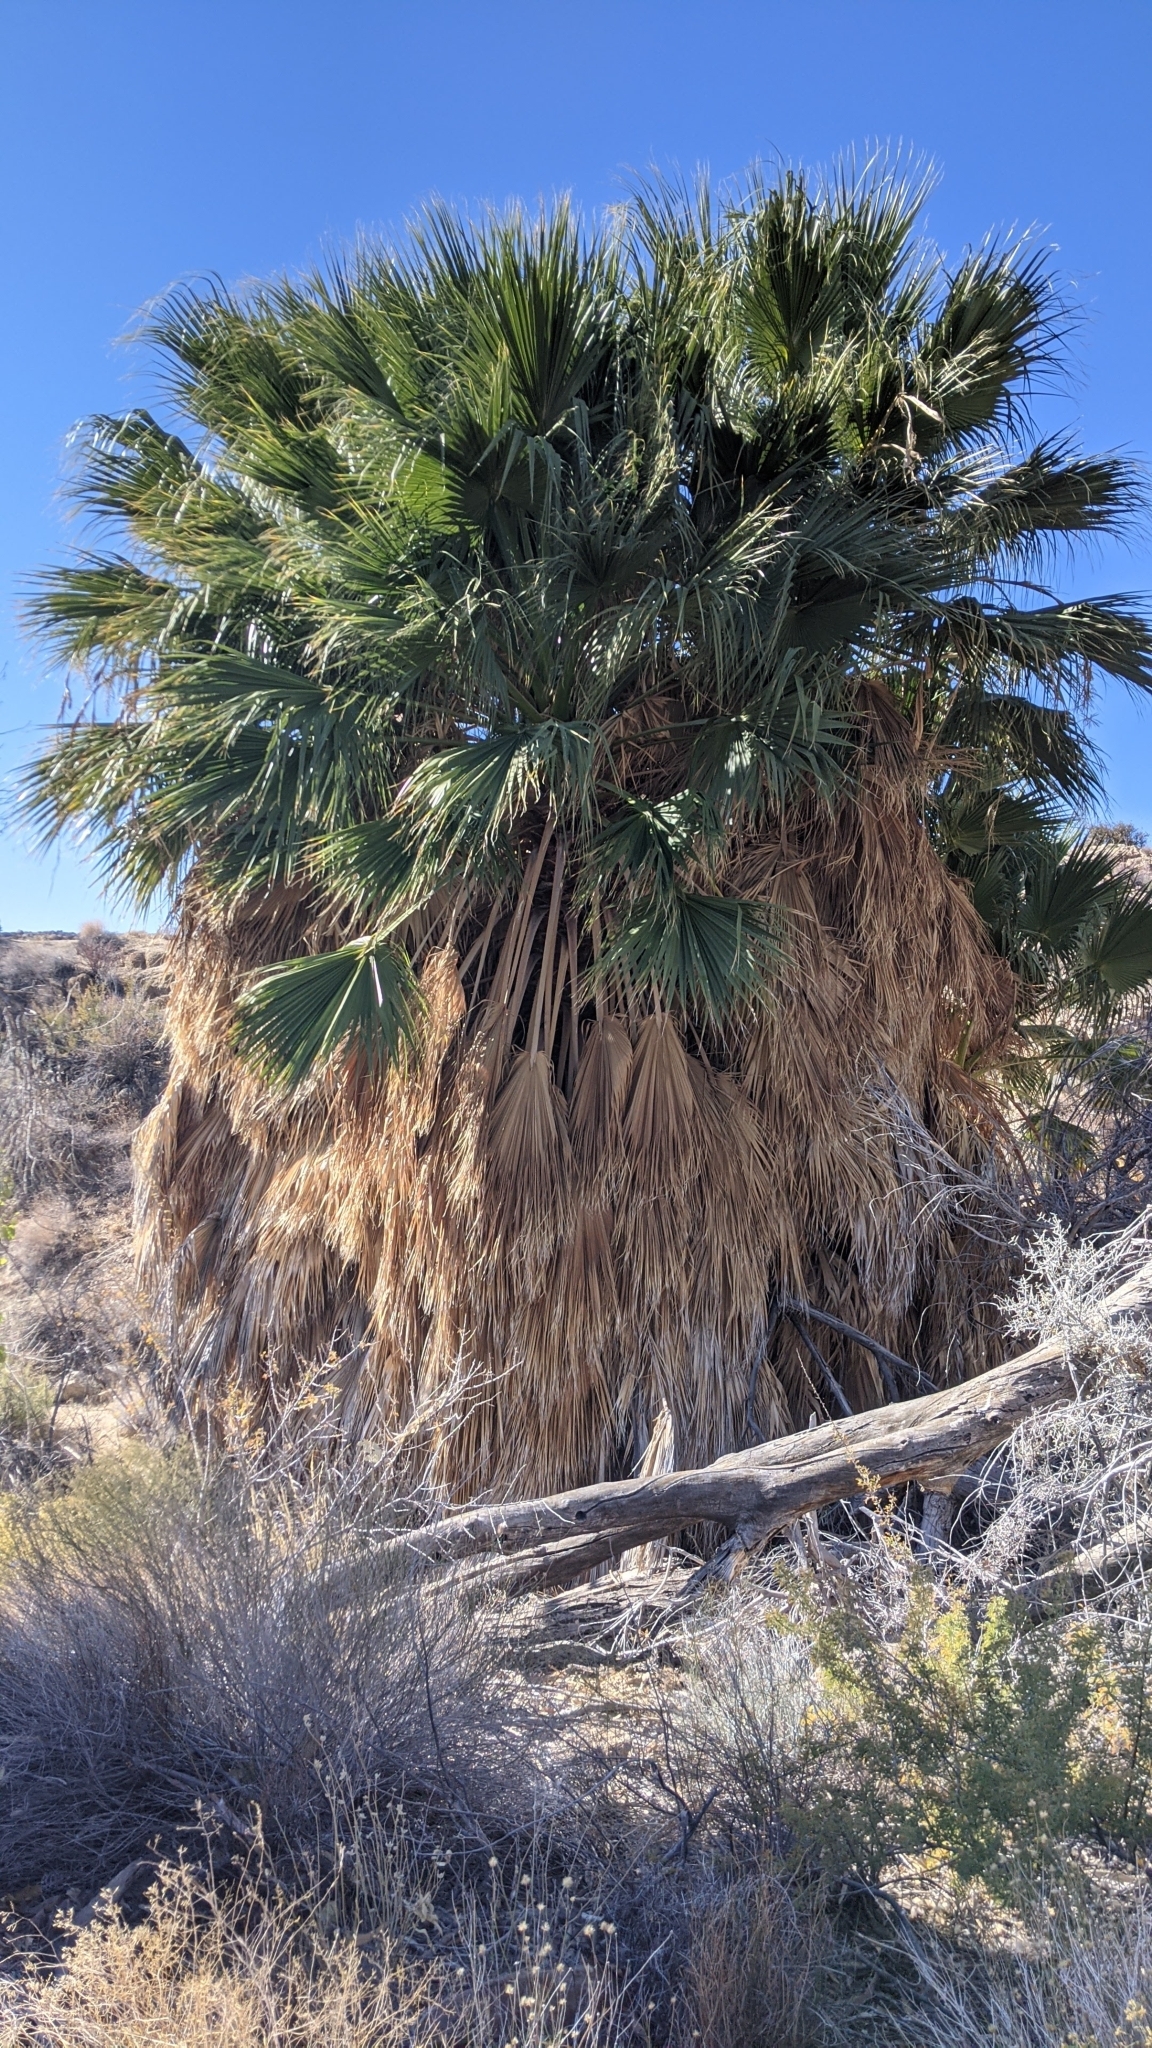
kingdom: Plantae
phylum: Tracheophyta
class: Liliopsida
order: Arecales
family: Arecaceae
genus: Washingtonia
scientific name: Washingtonia filifera
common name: California fan palm
